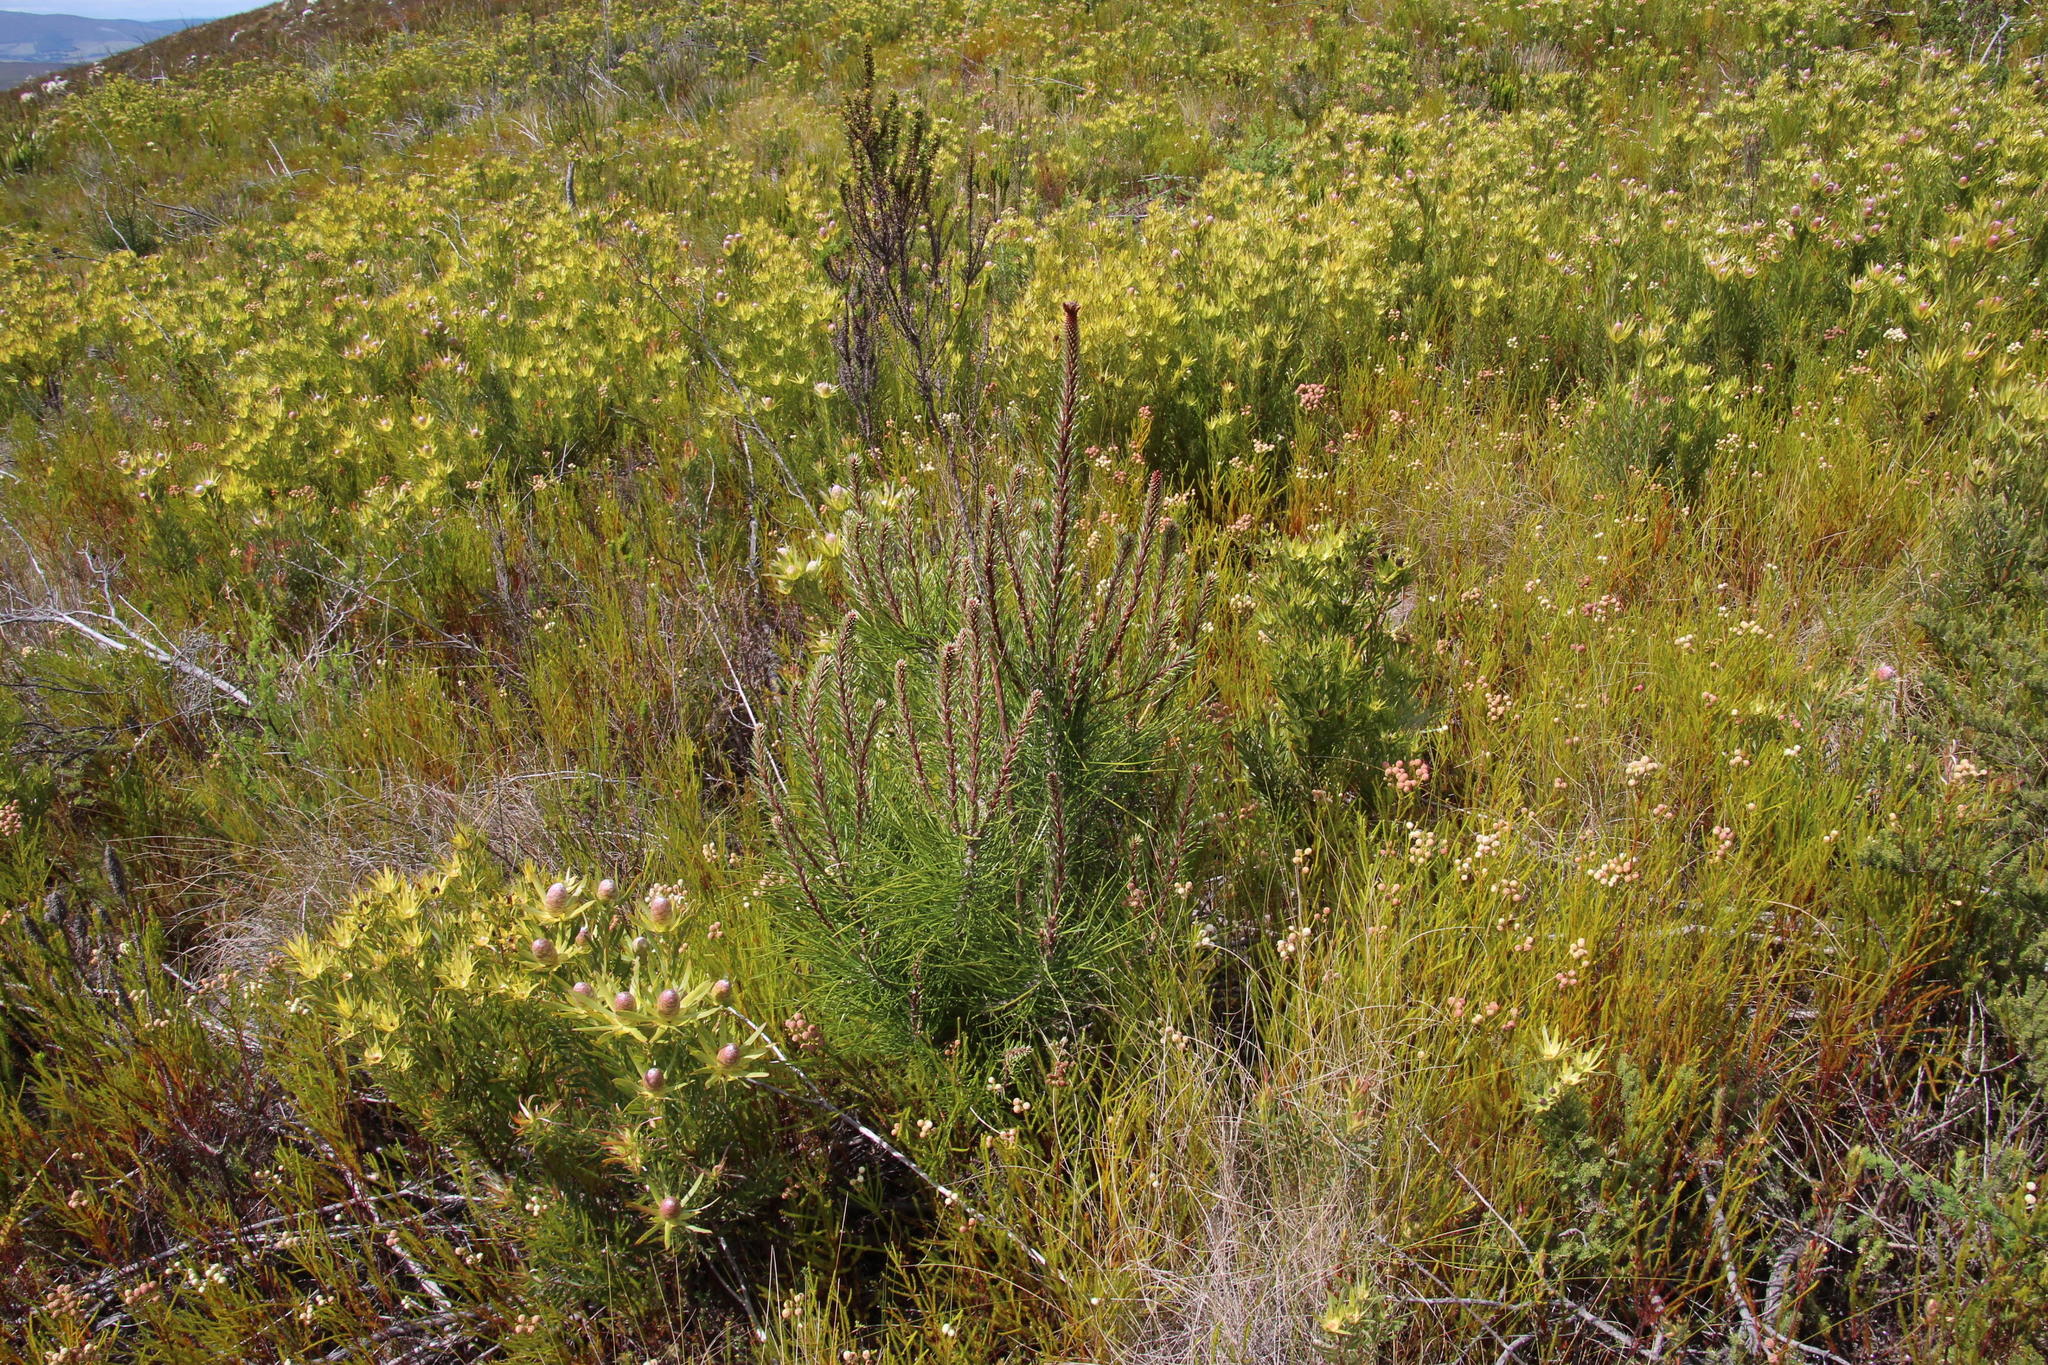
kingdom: Plantae
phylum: Tracheophyta
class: Pinopsida
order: Pinales
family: Pinaceae
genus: Pinus
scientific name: Pinus pinaster
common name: Maritime pine
